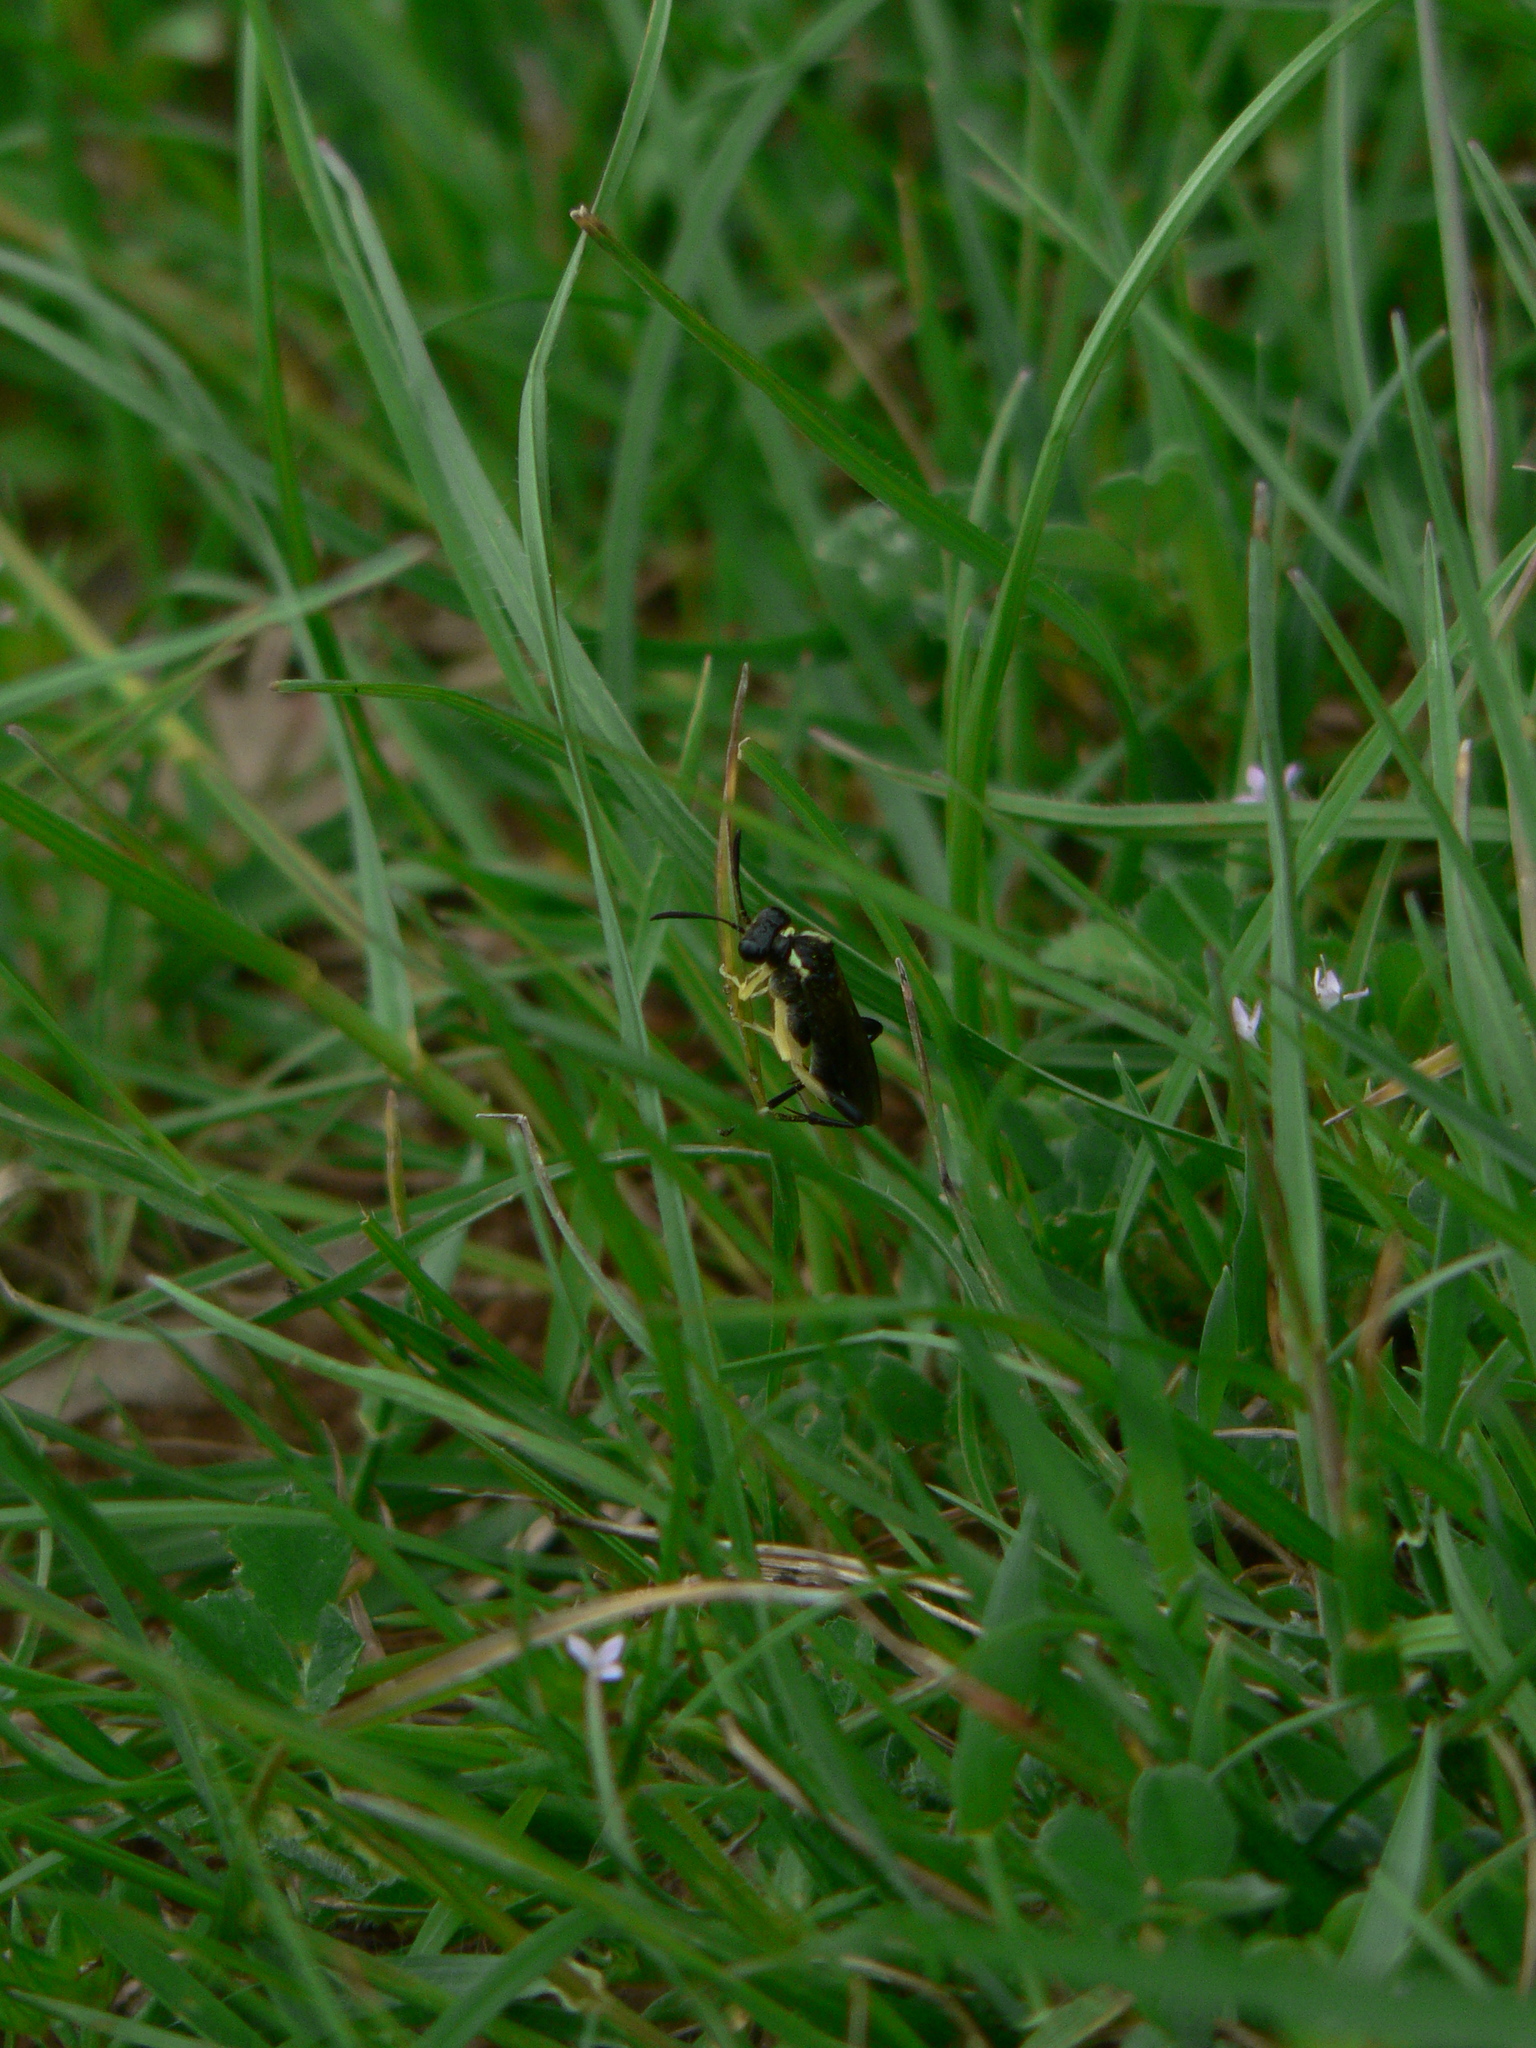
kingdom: Animalia
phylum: Arthropoda
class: Insecta
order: Hymenoptera
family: Tenthredinidae
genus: Macrophya
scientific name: Macrophya montana
